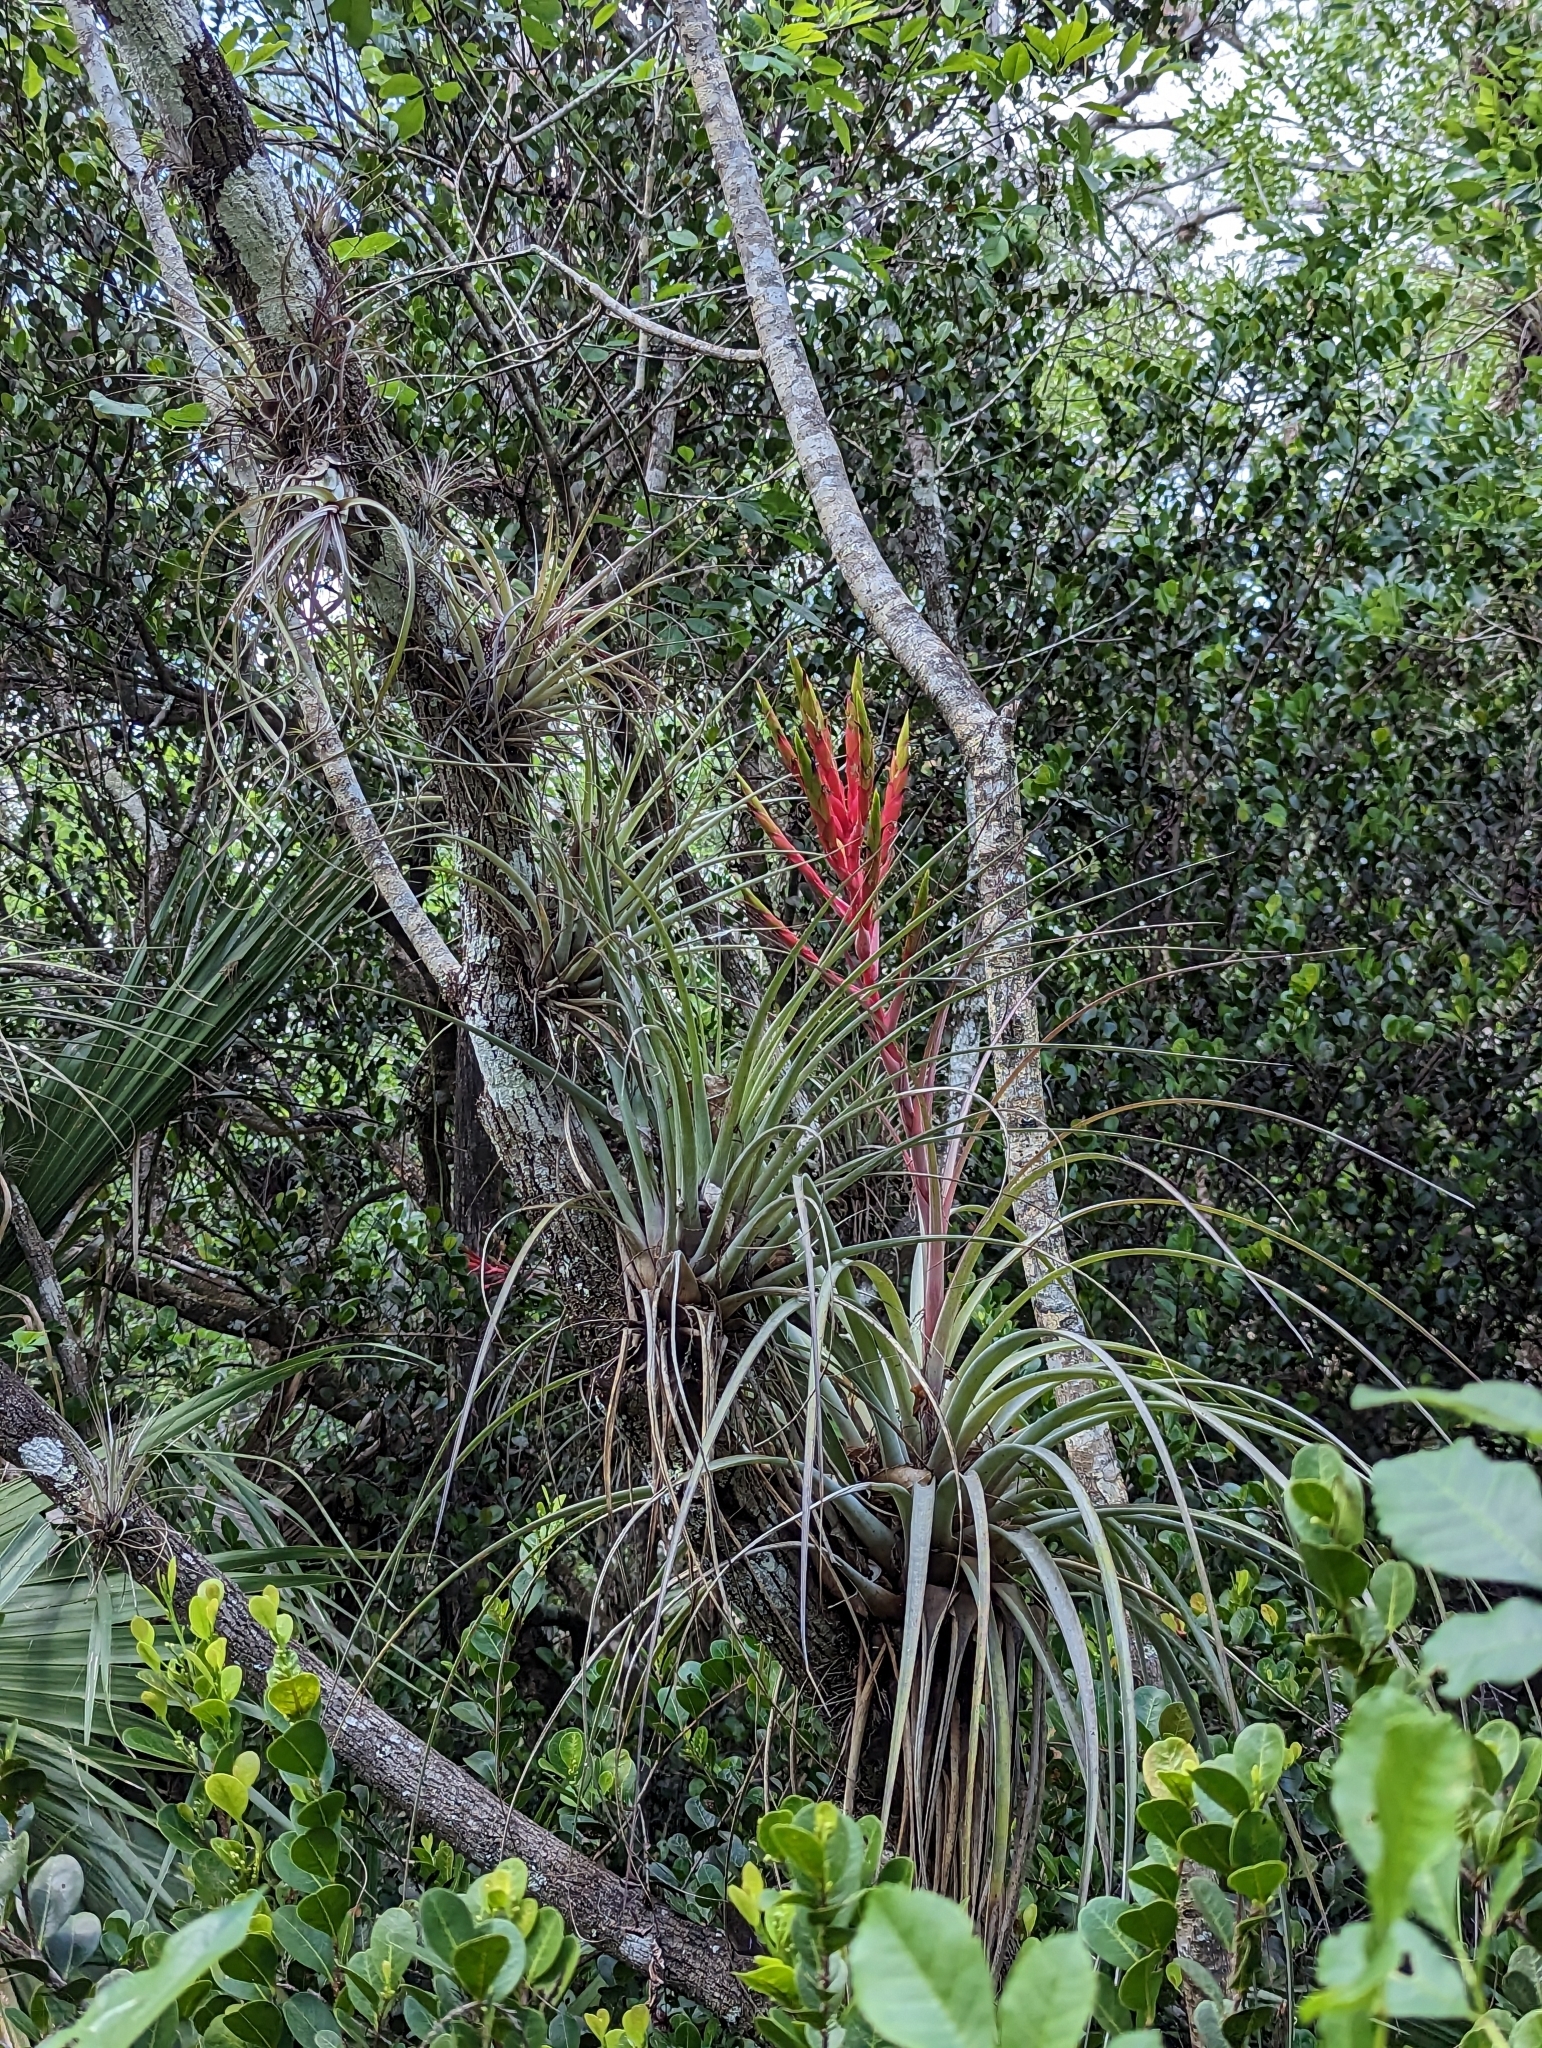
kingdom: Plantae
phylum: Tracheophyta
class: Liliopsida
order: Poales
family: Bromeliaceae
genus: Tillandsia
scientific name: Tillandsia fasciculata
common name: Giant airplant
